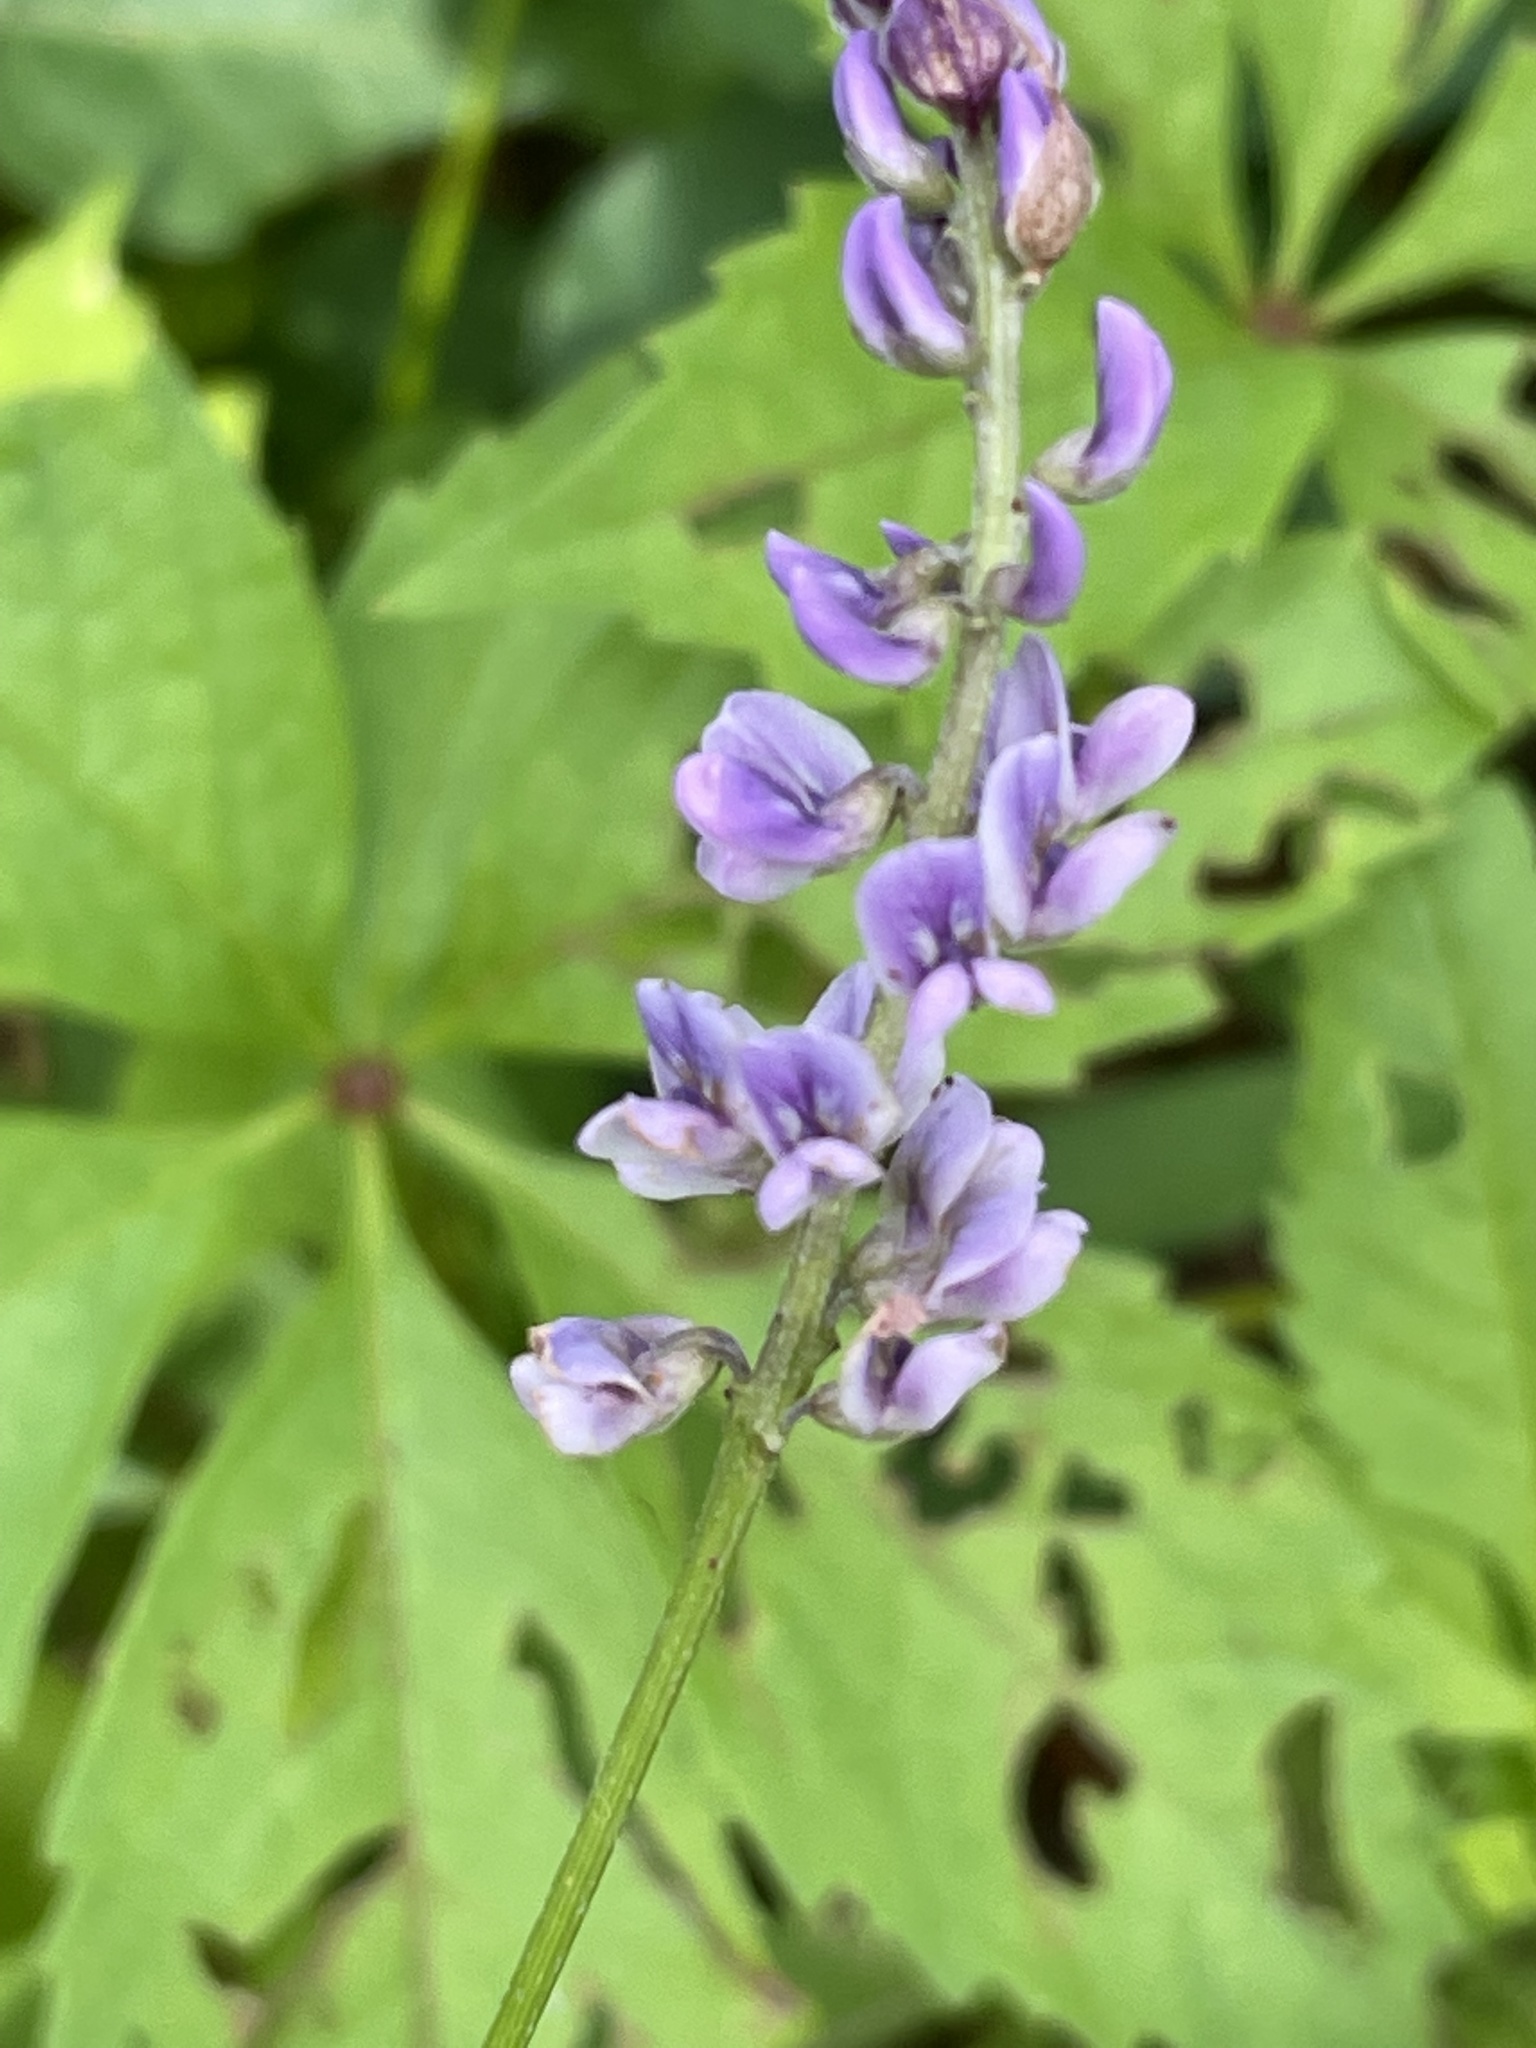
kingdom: Plantae
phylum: Tracheophyta
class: Magnoliopsida
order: Fabales
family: Fabaceae
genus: Orbexilum
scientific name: Orbexilum psoralioides
